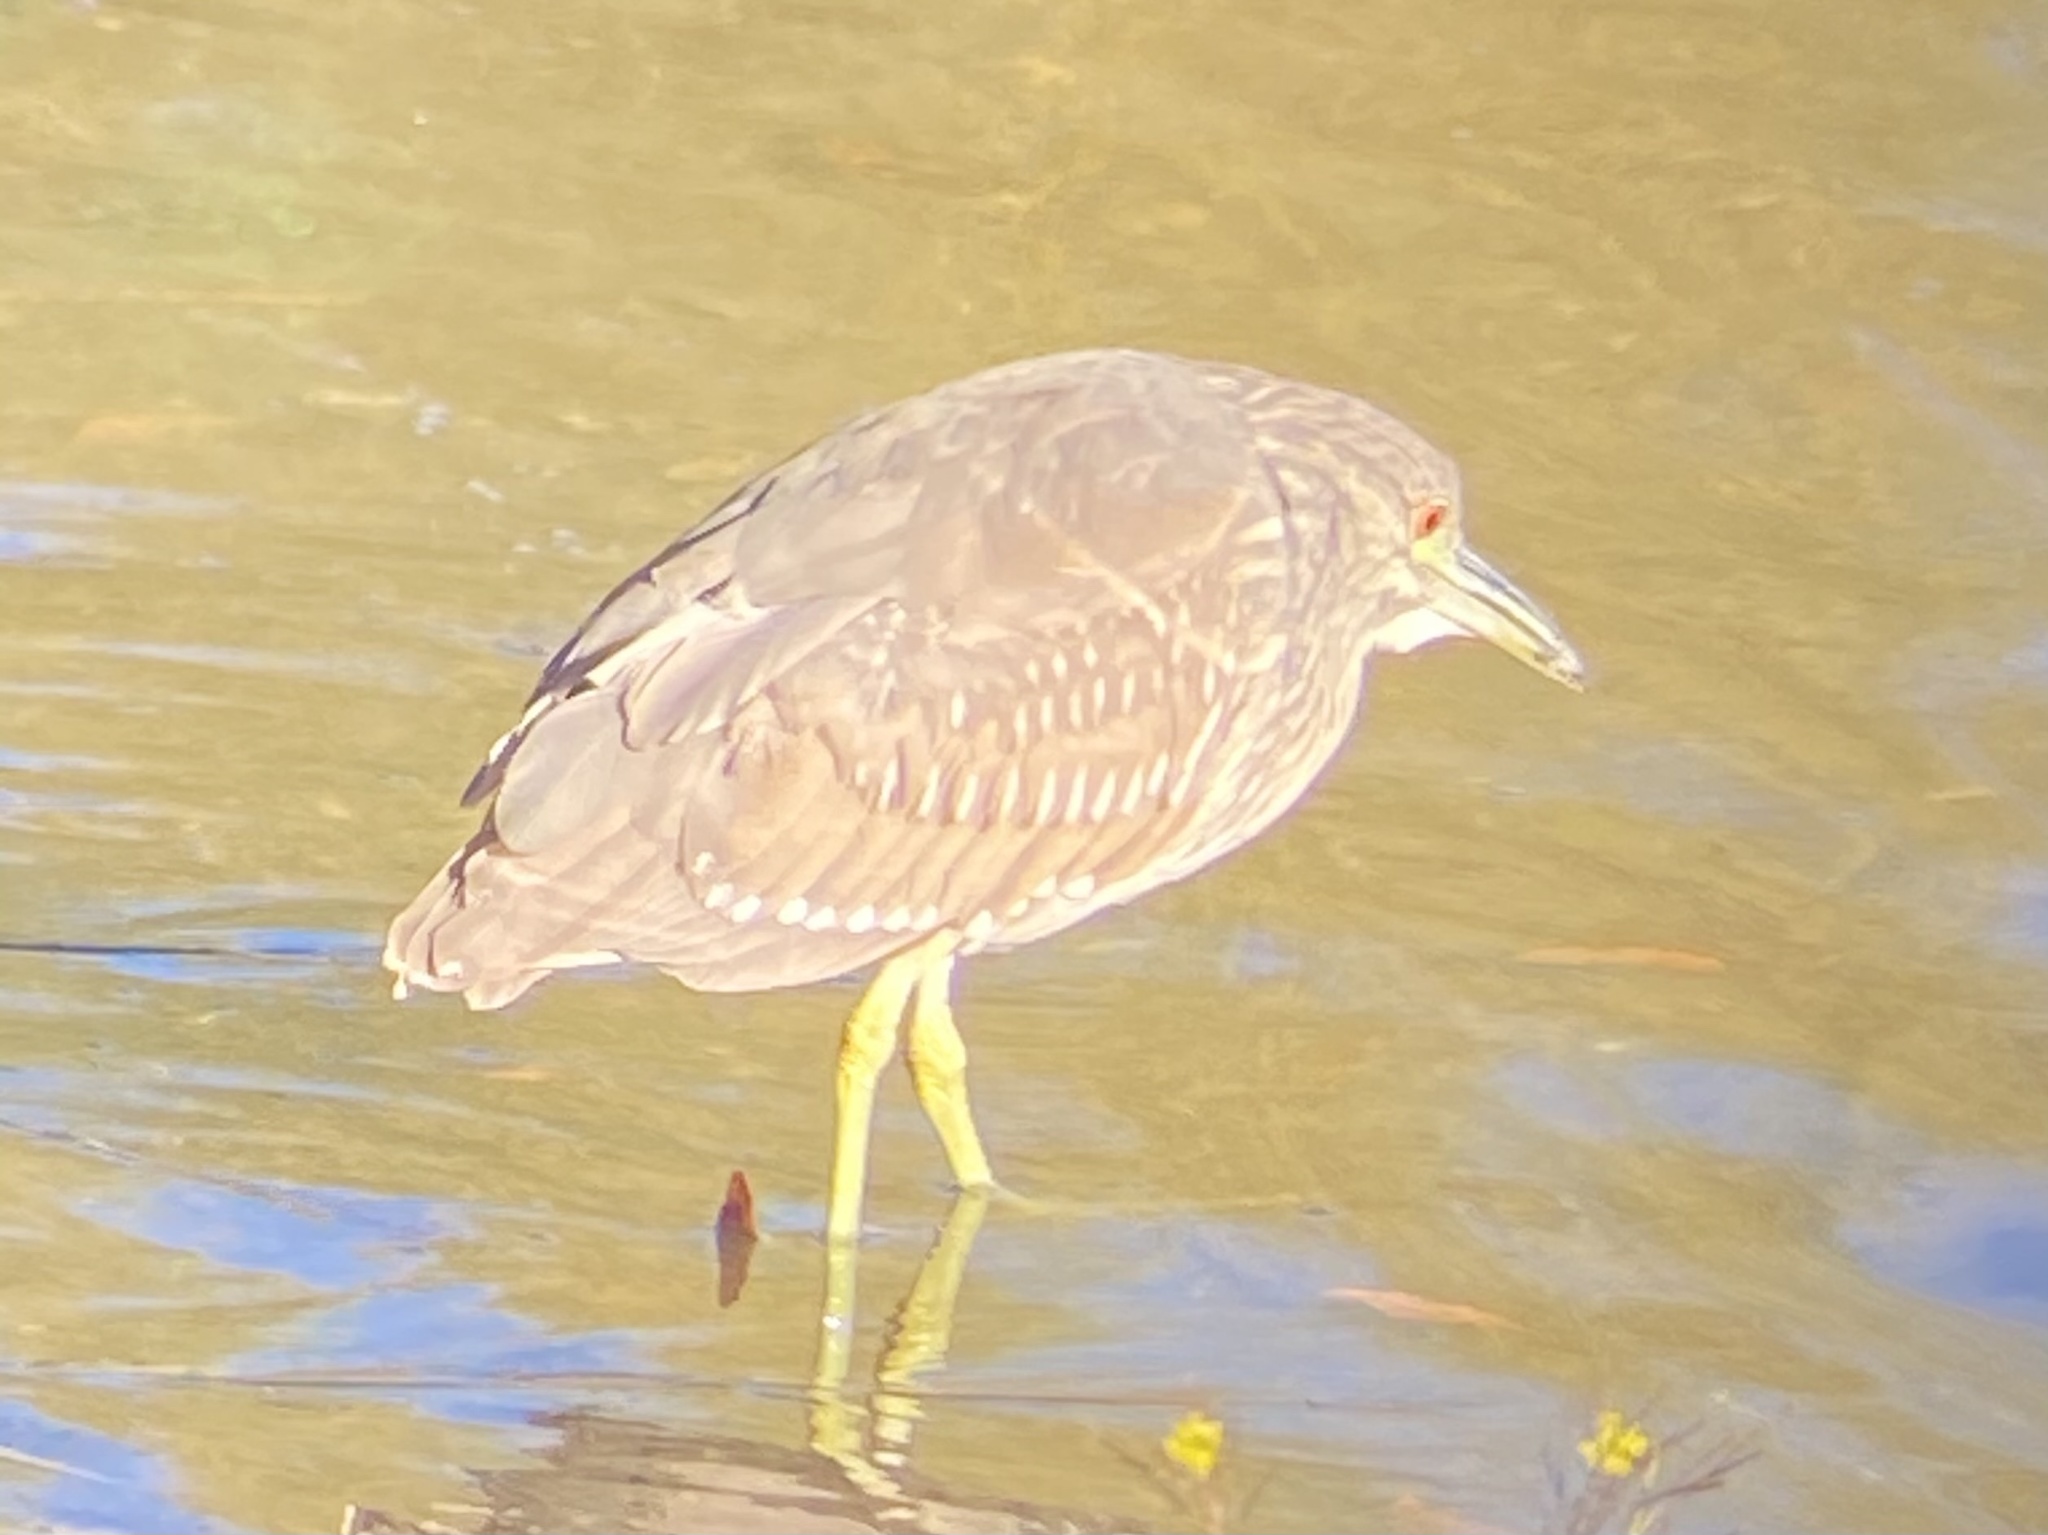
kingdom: Animalia
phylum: Chordata
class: Aves
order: Pelecaniformes
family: Ardeidae
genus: Nycticorax
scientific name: Nycticorax nycticorax
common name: Black-crowned night heron
